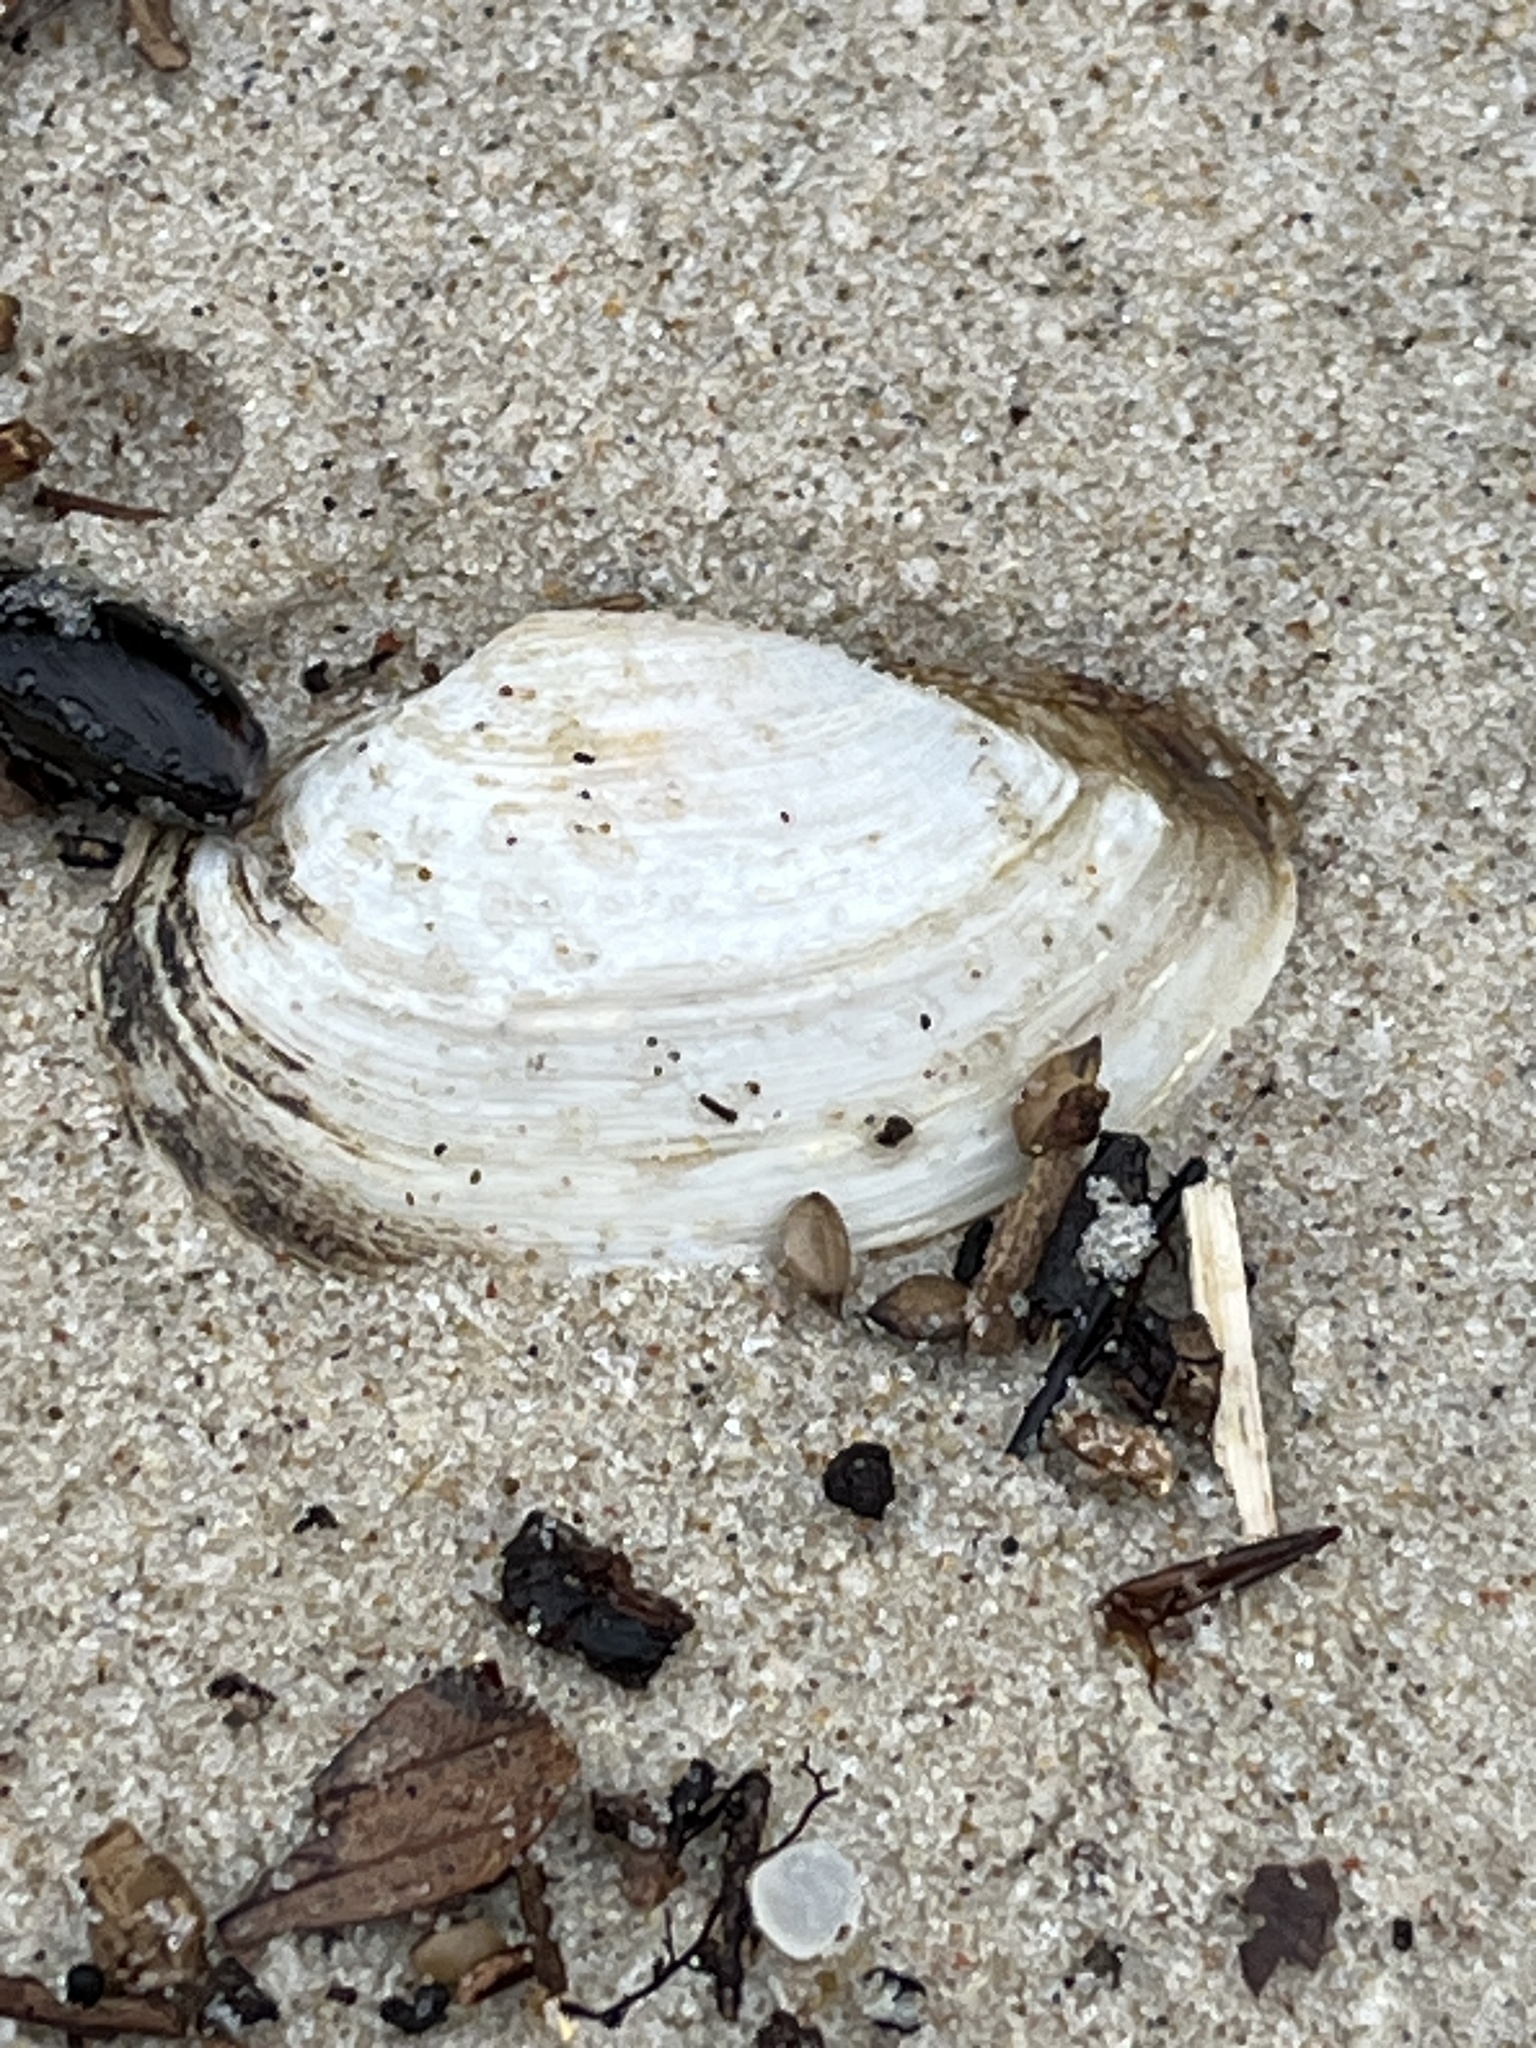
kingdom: Animalia
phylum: Mollusca
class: Bivalvia
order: Myida
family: Myidae
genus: Mya
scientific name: Mya arenaria
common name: Soft-shelled clam
